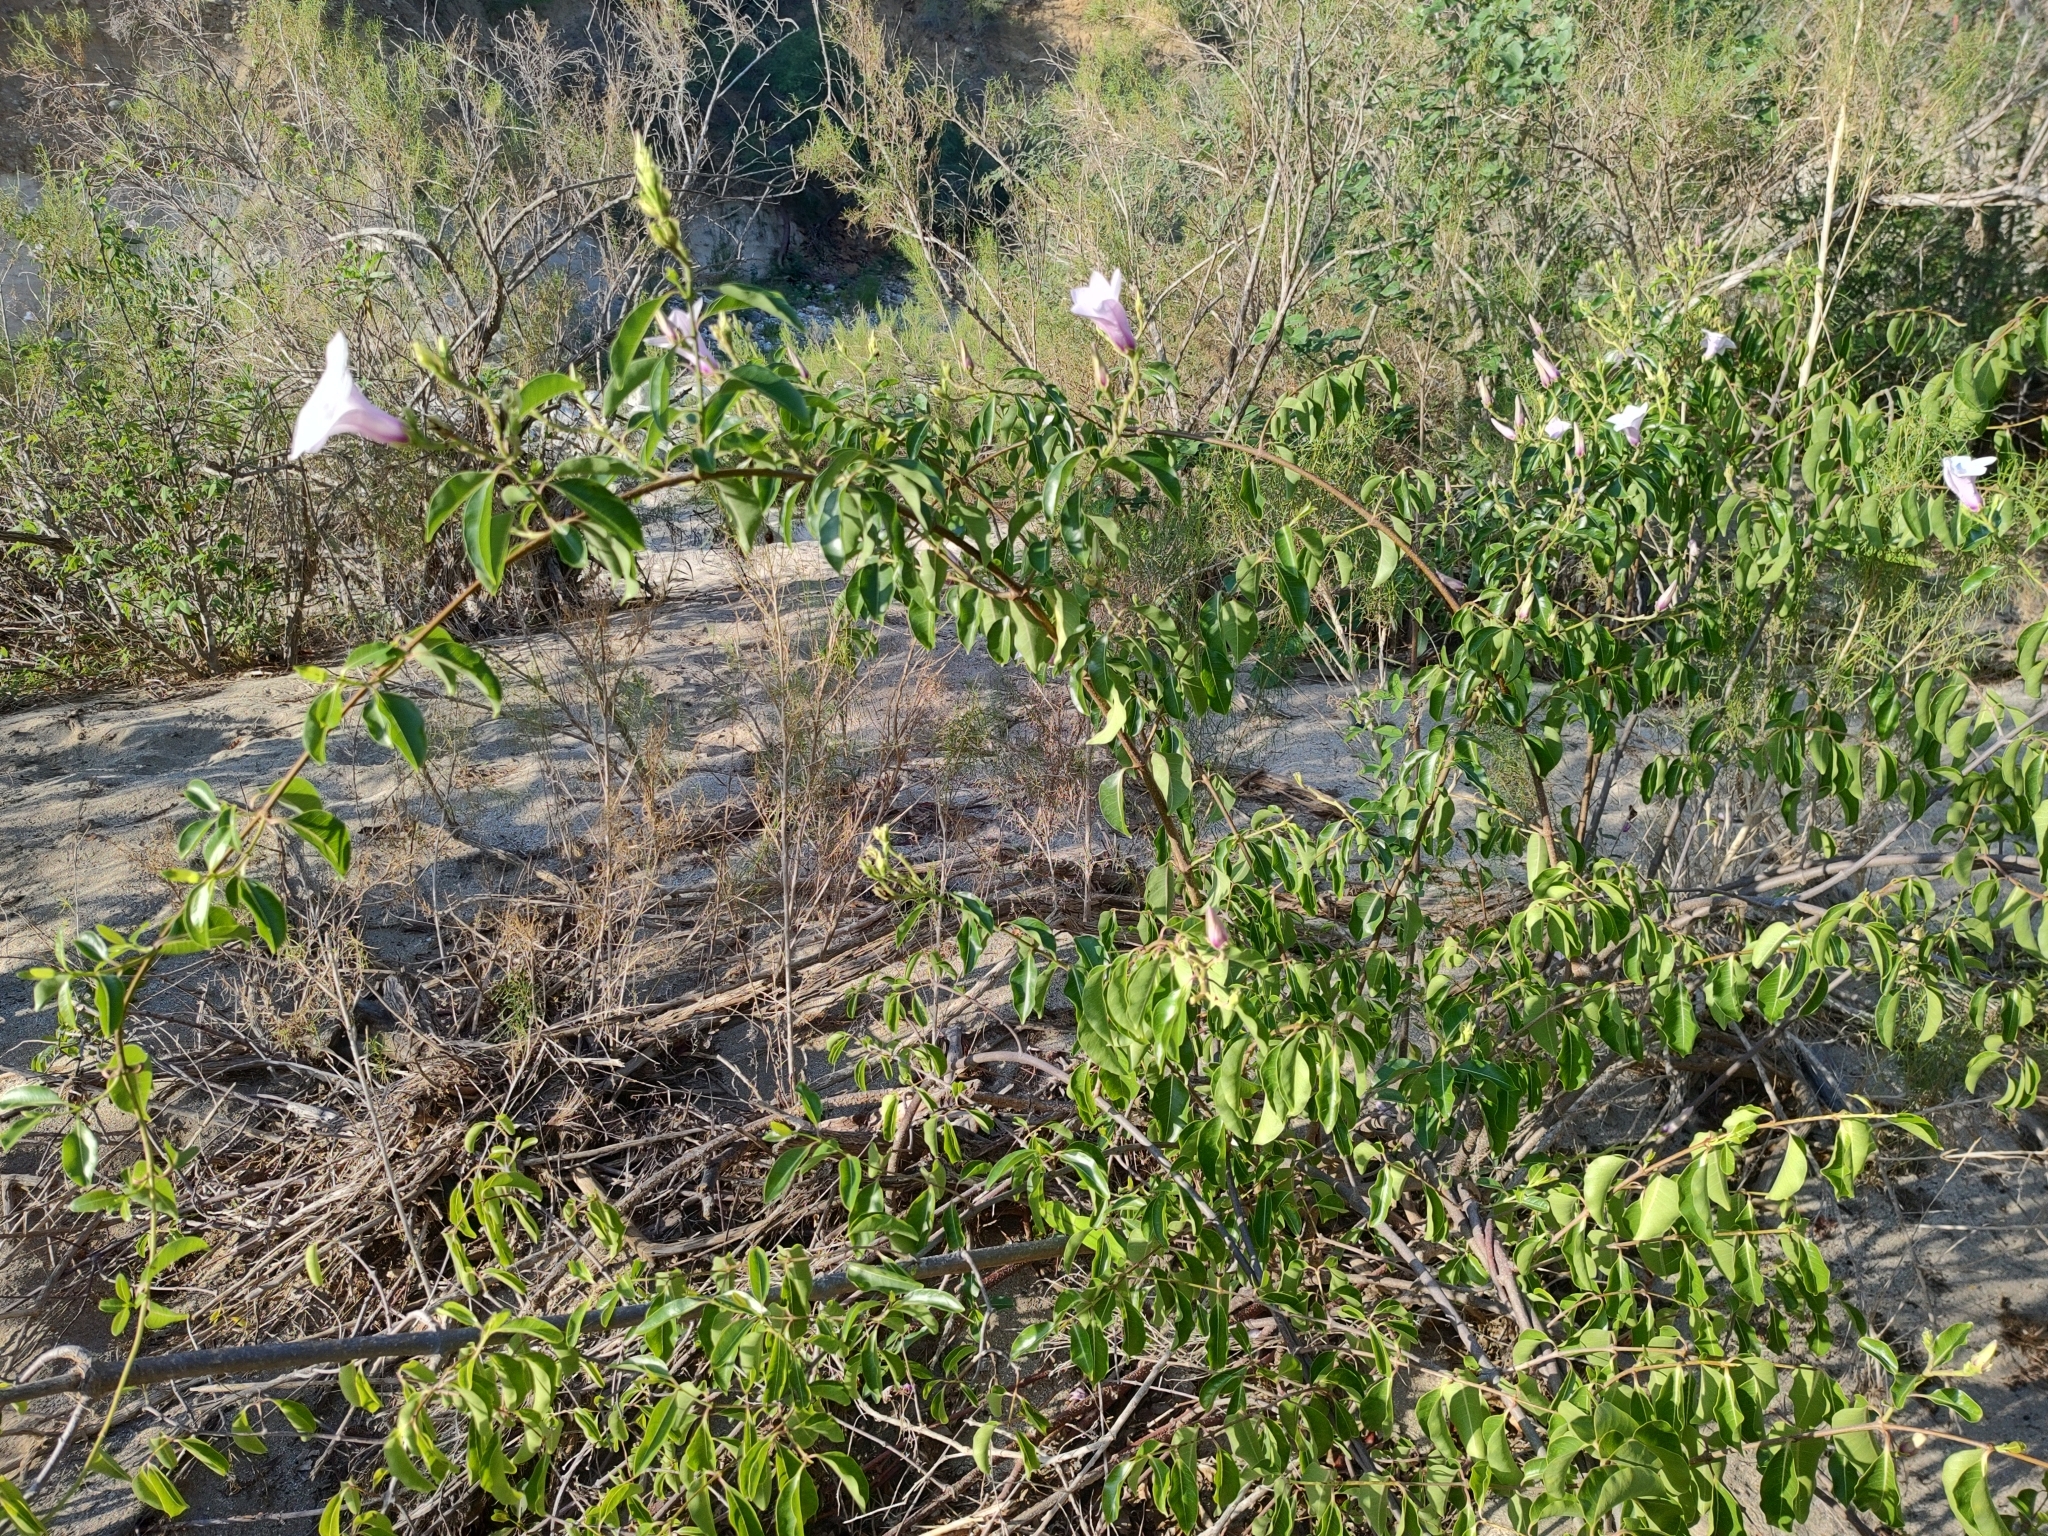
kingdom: Plantae
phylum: Tracheophyta
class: Magnoliopsida
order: Gentianales
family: Apocynaceae
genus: Cryptostegia
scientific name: Cryptostegia grandiflora
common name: Palay rubbervine
